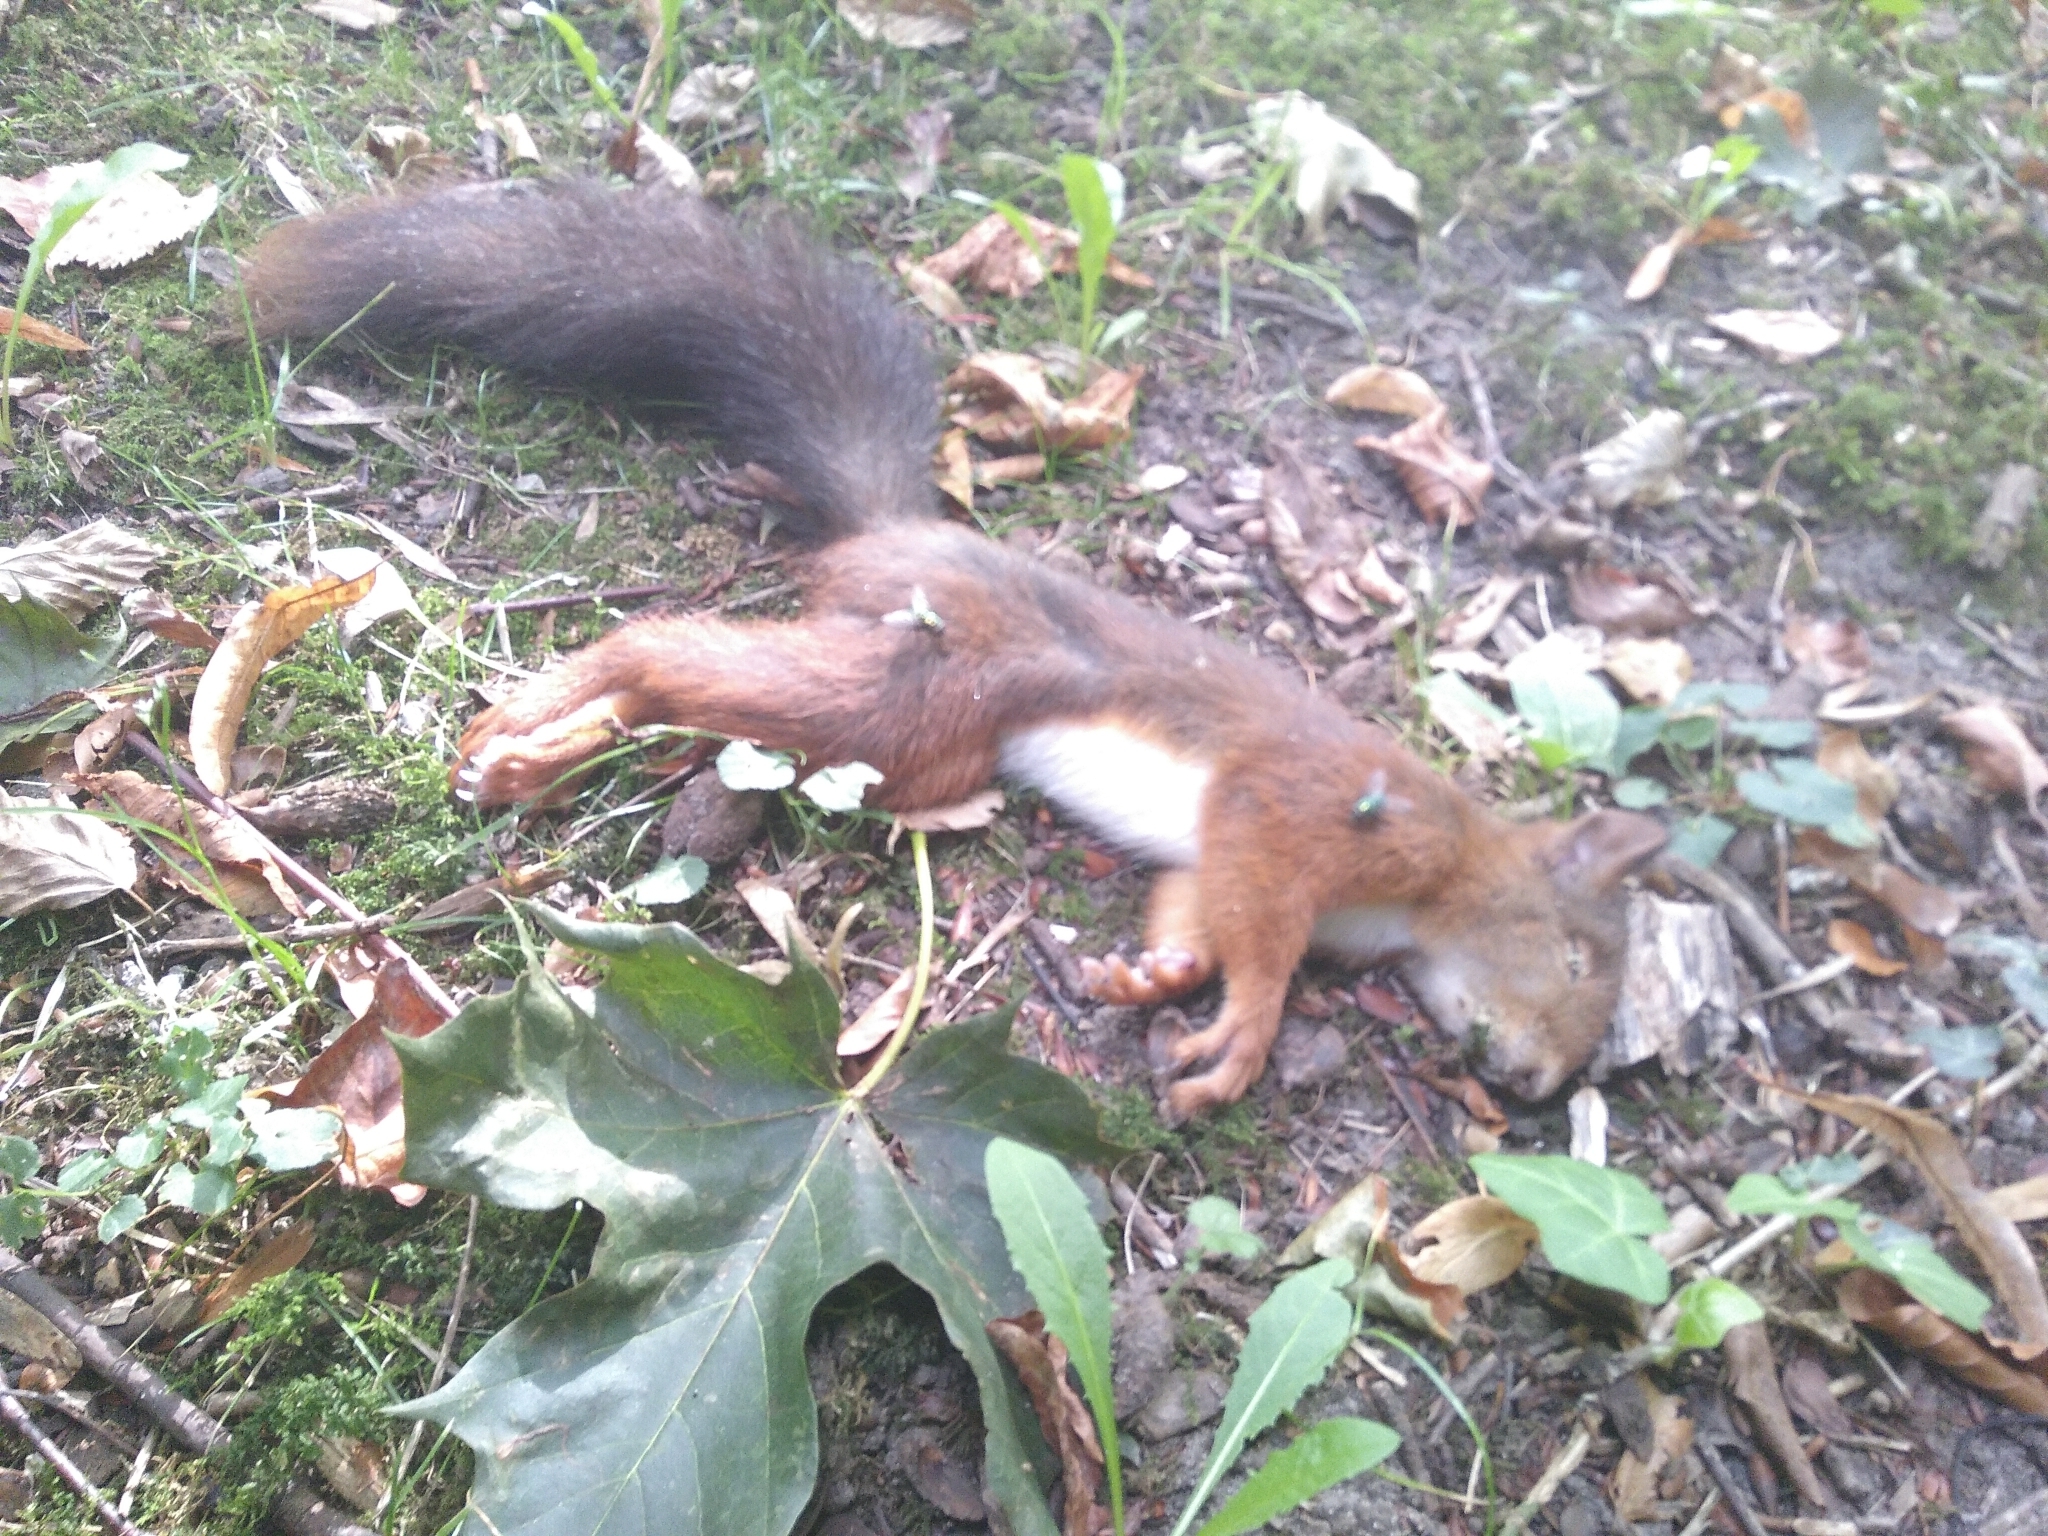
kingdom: Animalia
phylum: Chordata
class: Mammalia
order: Rodentia
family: Sciuridae
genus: Sciurus
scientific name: Sciurus vulgaris
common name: Eurasian red squirrel
